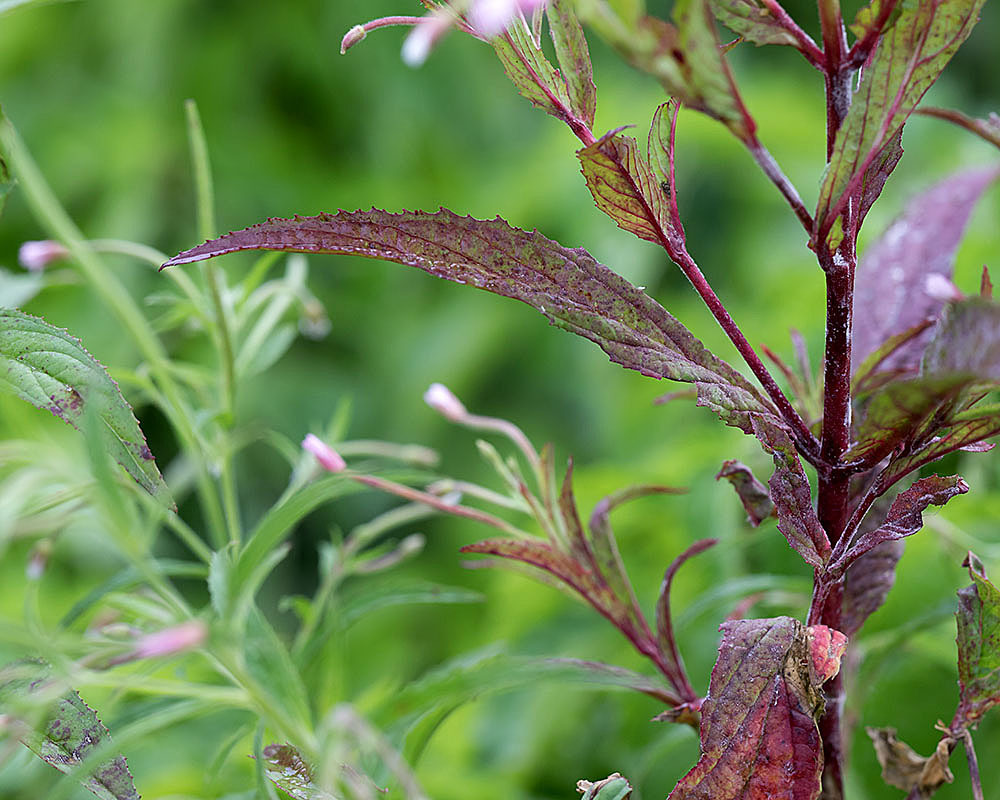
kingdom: Plantae
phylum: Tracheophyta
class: Magnoliopsida
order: Myrtales
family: Onagraceae
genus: Epilobium
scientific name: Epilobium coloratum
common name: Bronze willowherb
